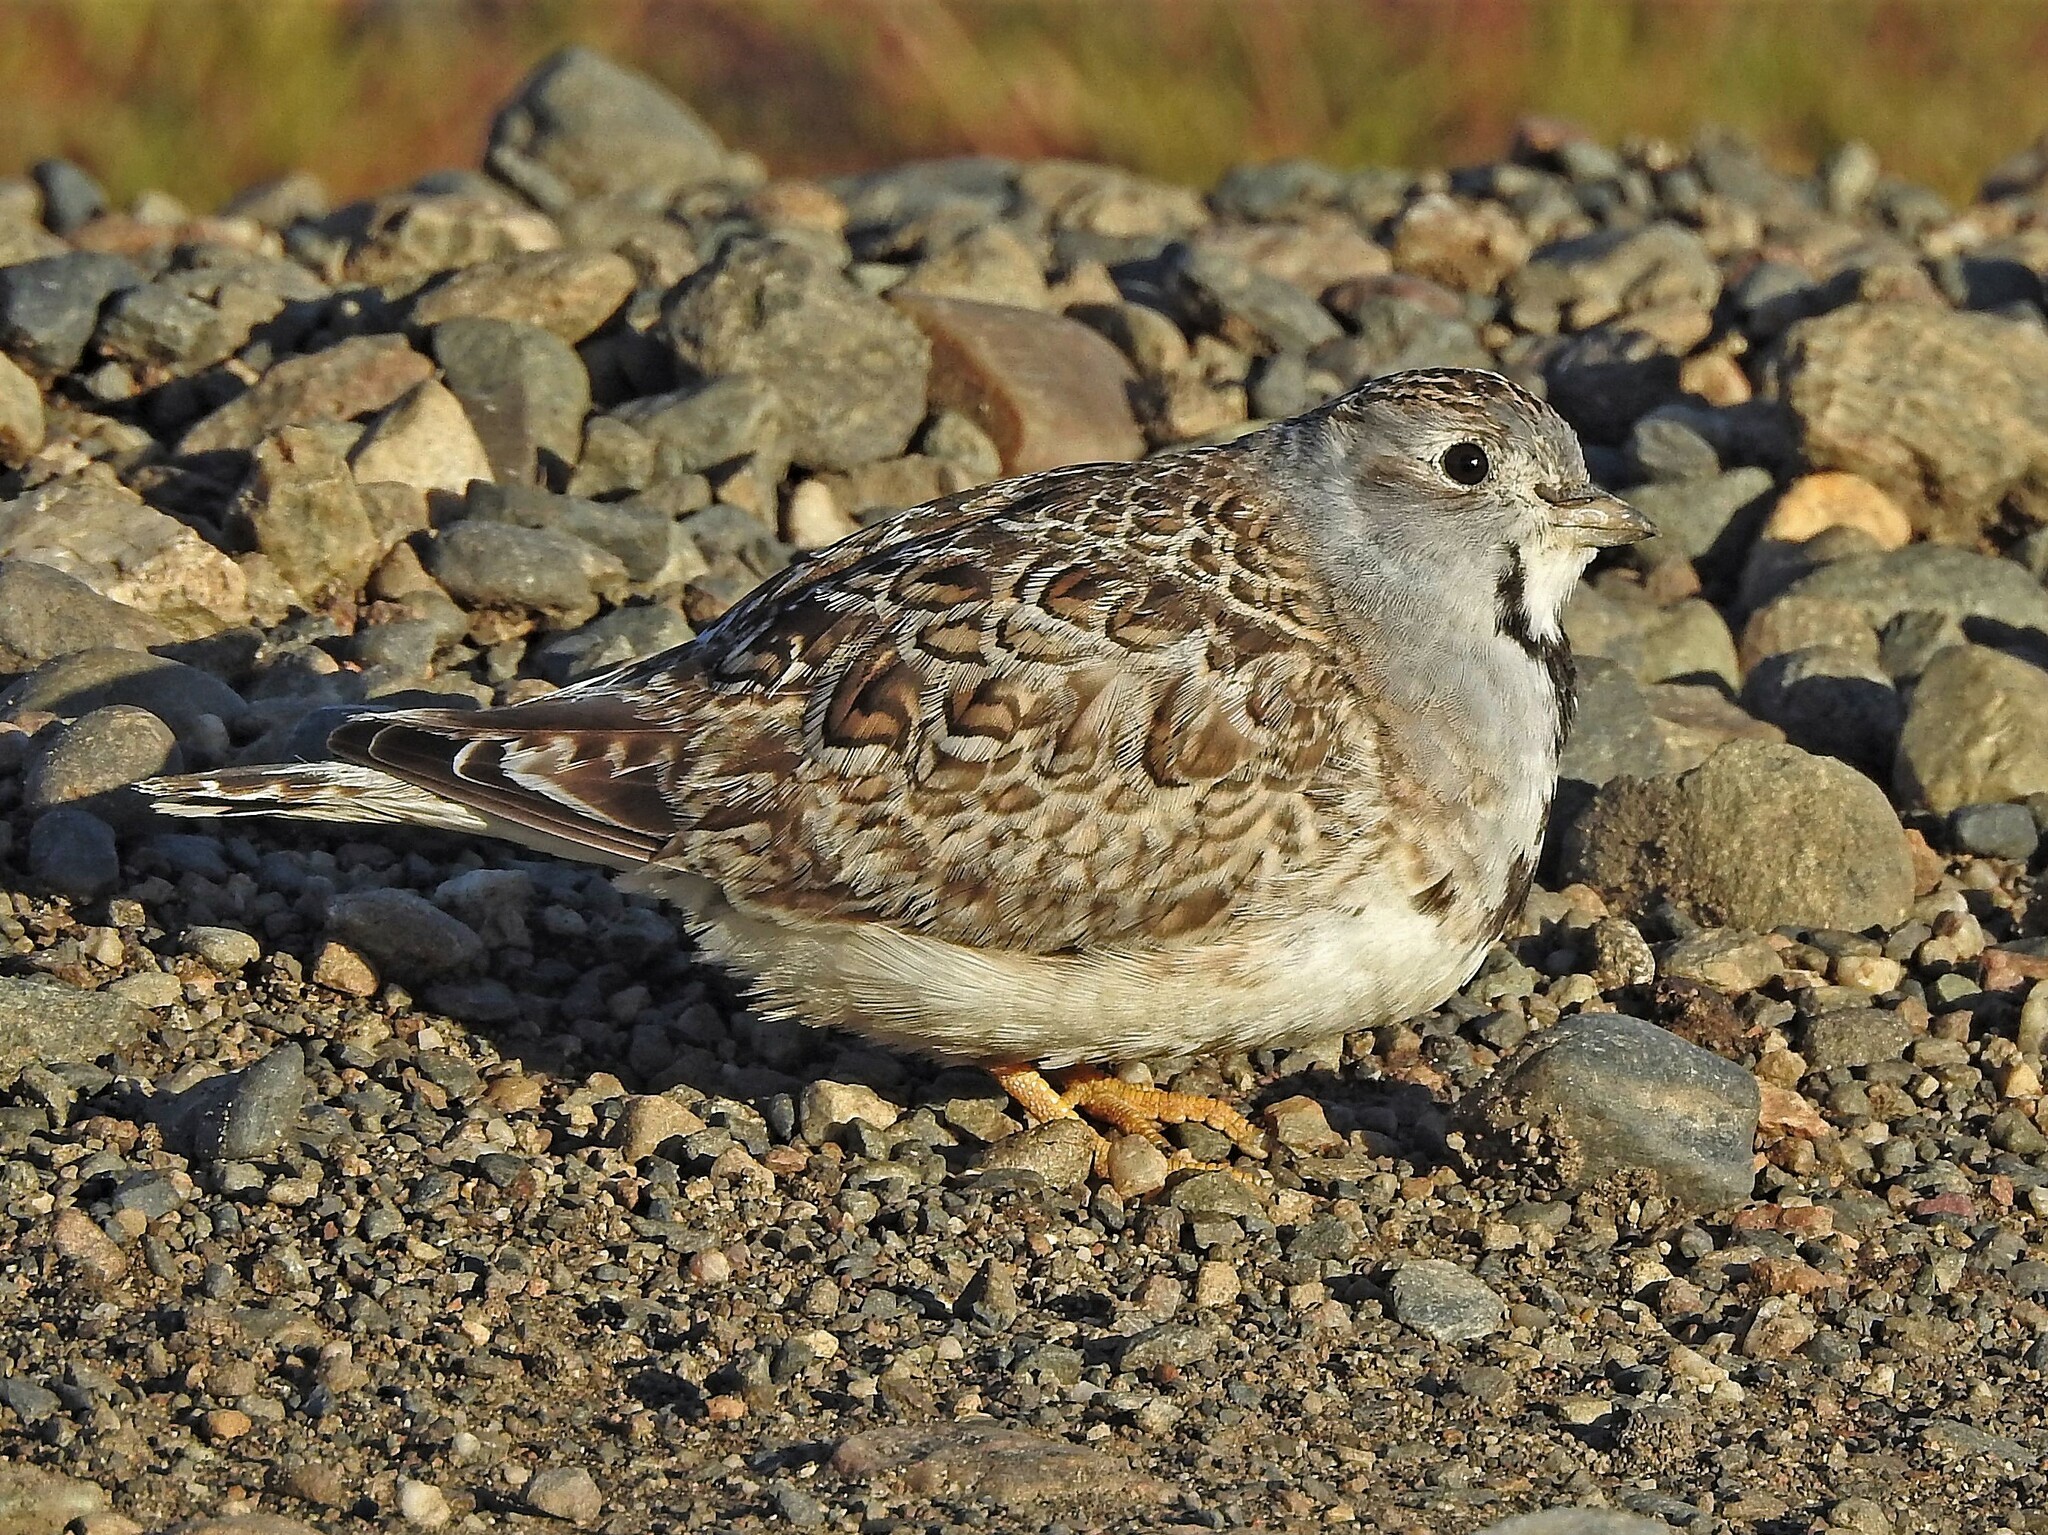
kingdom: Animalia
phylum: Chordata
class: Aves
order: Charadriiformes
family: Thinocoridae
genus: Thinocorus
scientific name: Thinocorus rumicivorus
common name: Least seedsnipe
